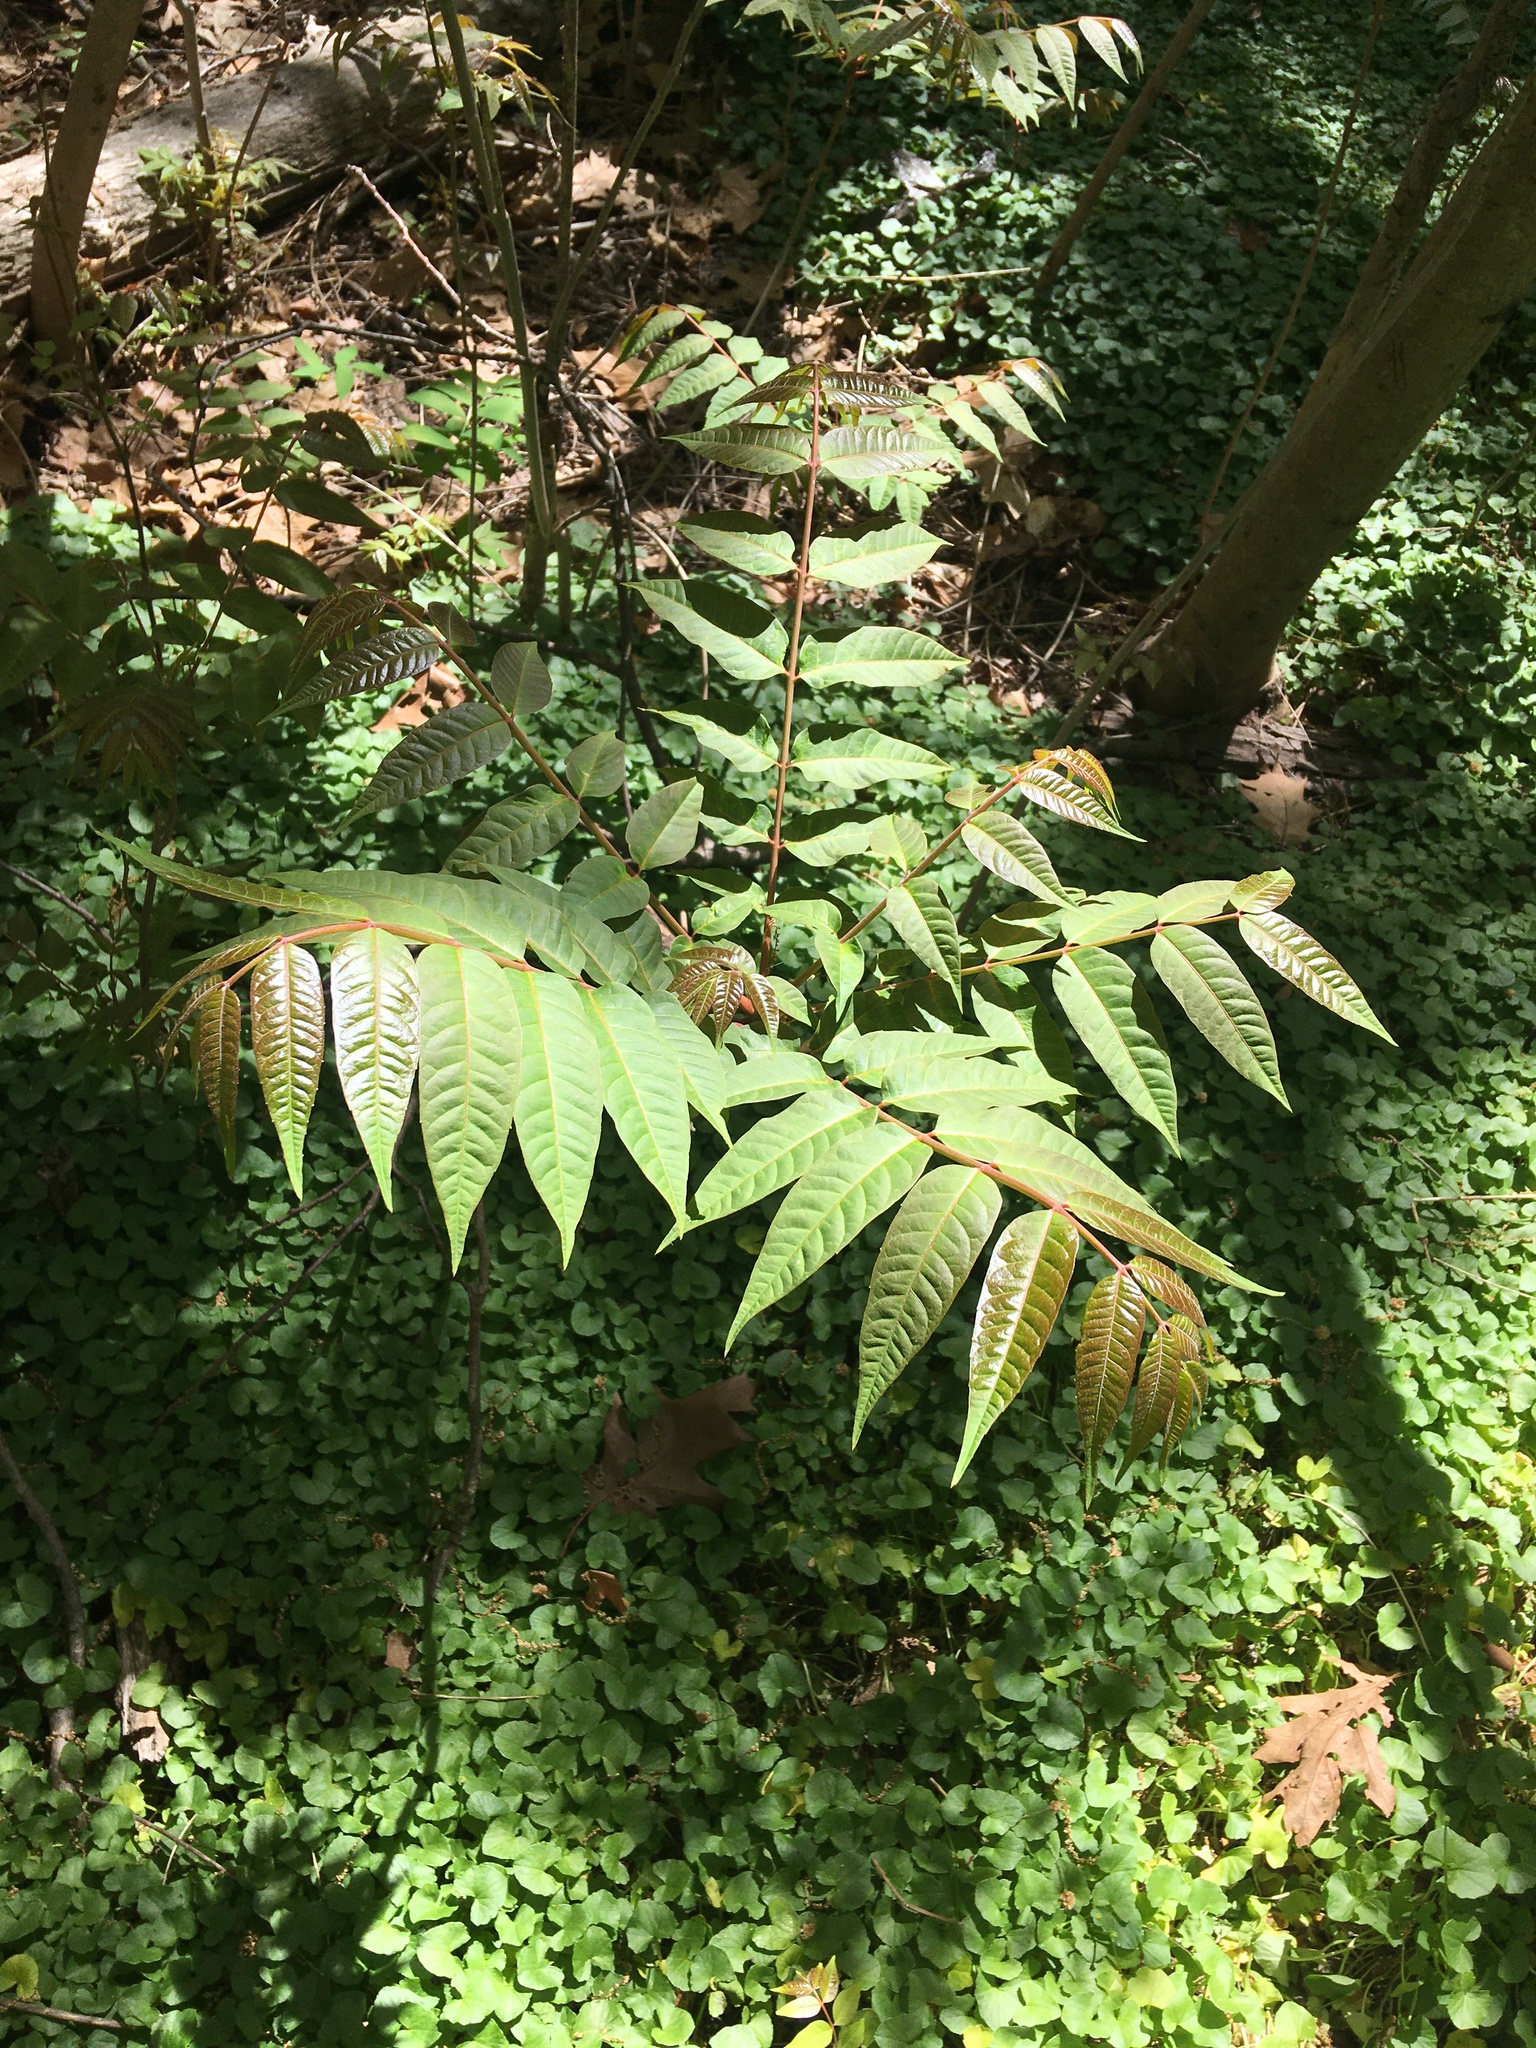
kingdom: Plantae
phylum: Tracheophyta
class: Magnoliopsida
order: Sapindales
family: Meliaceae
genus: Toona
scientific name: Toona sinensis
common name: Red toon
